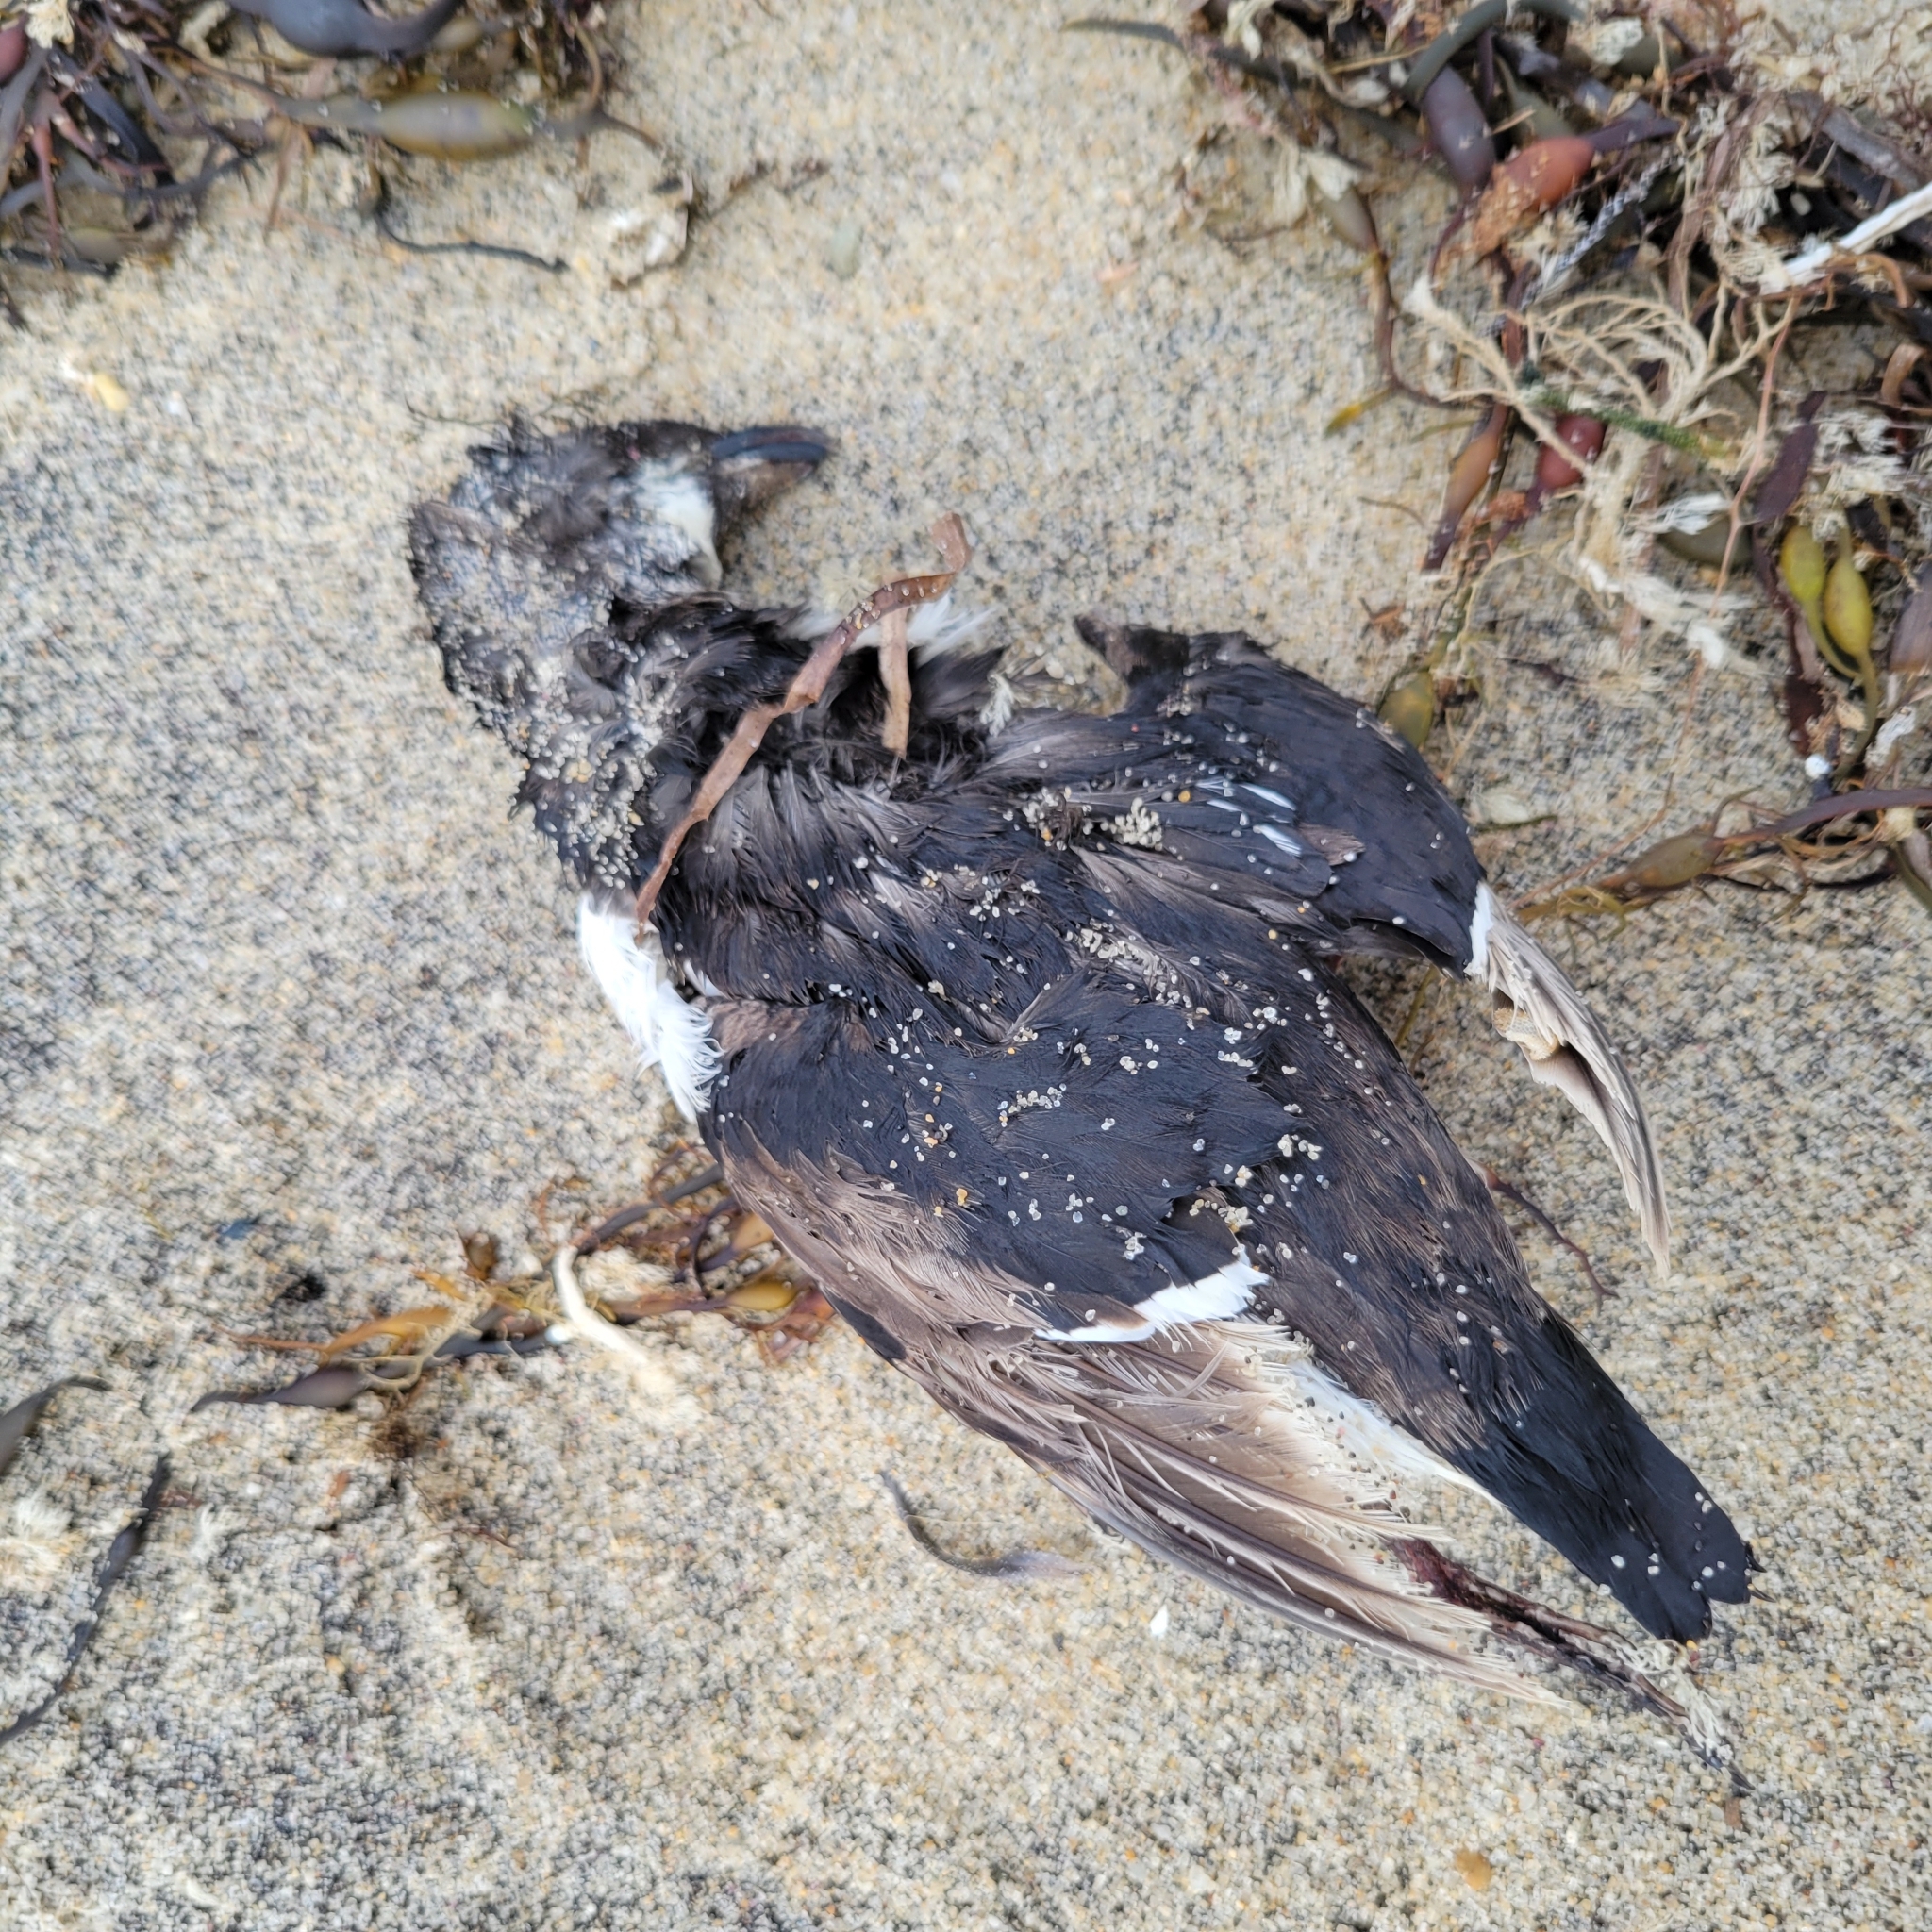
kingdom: Animalia
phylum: Chordata
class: Aves
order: Charadriiformes
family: Alcidae
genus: Alle
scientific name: Alle alle
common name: Little auk
